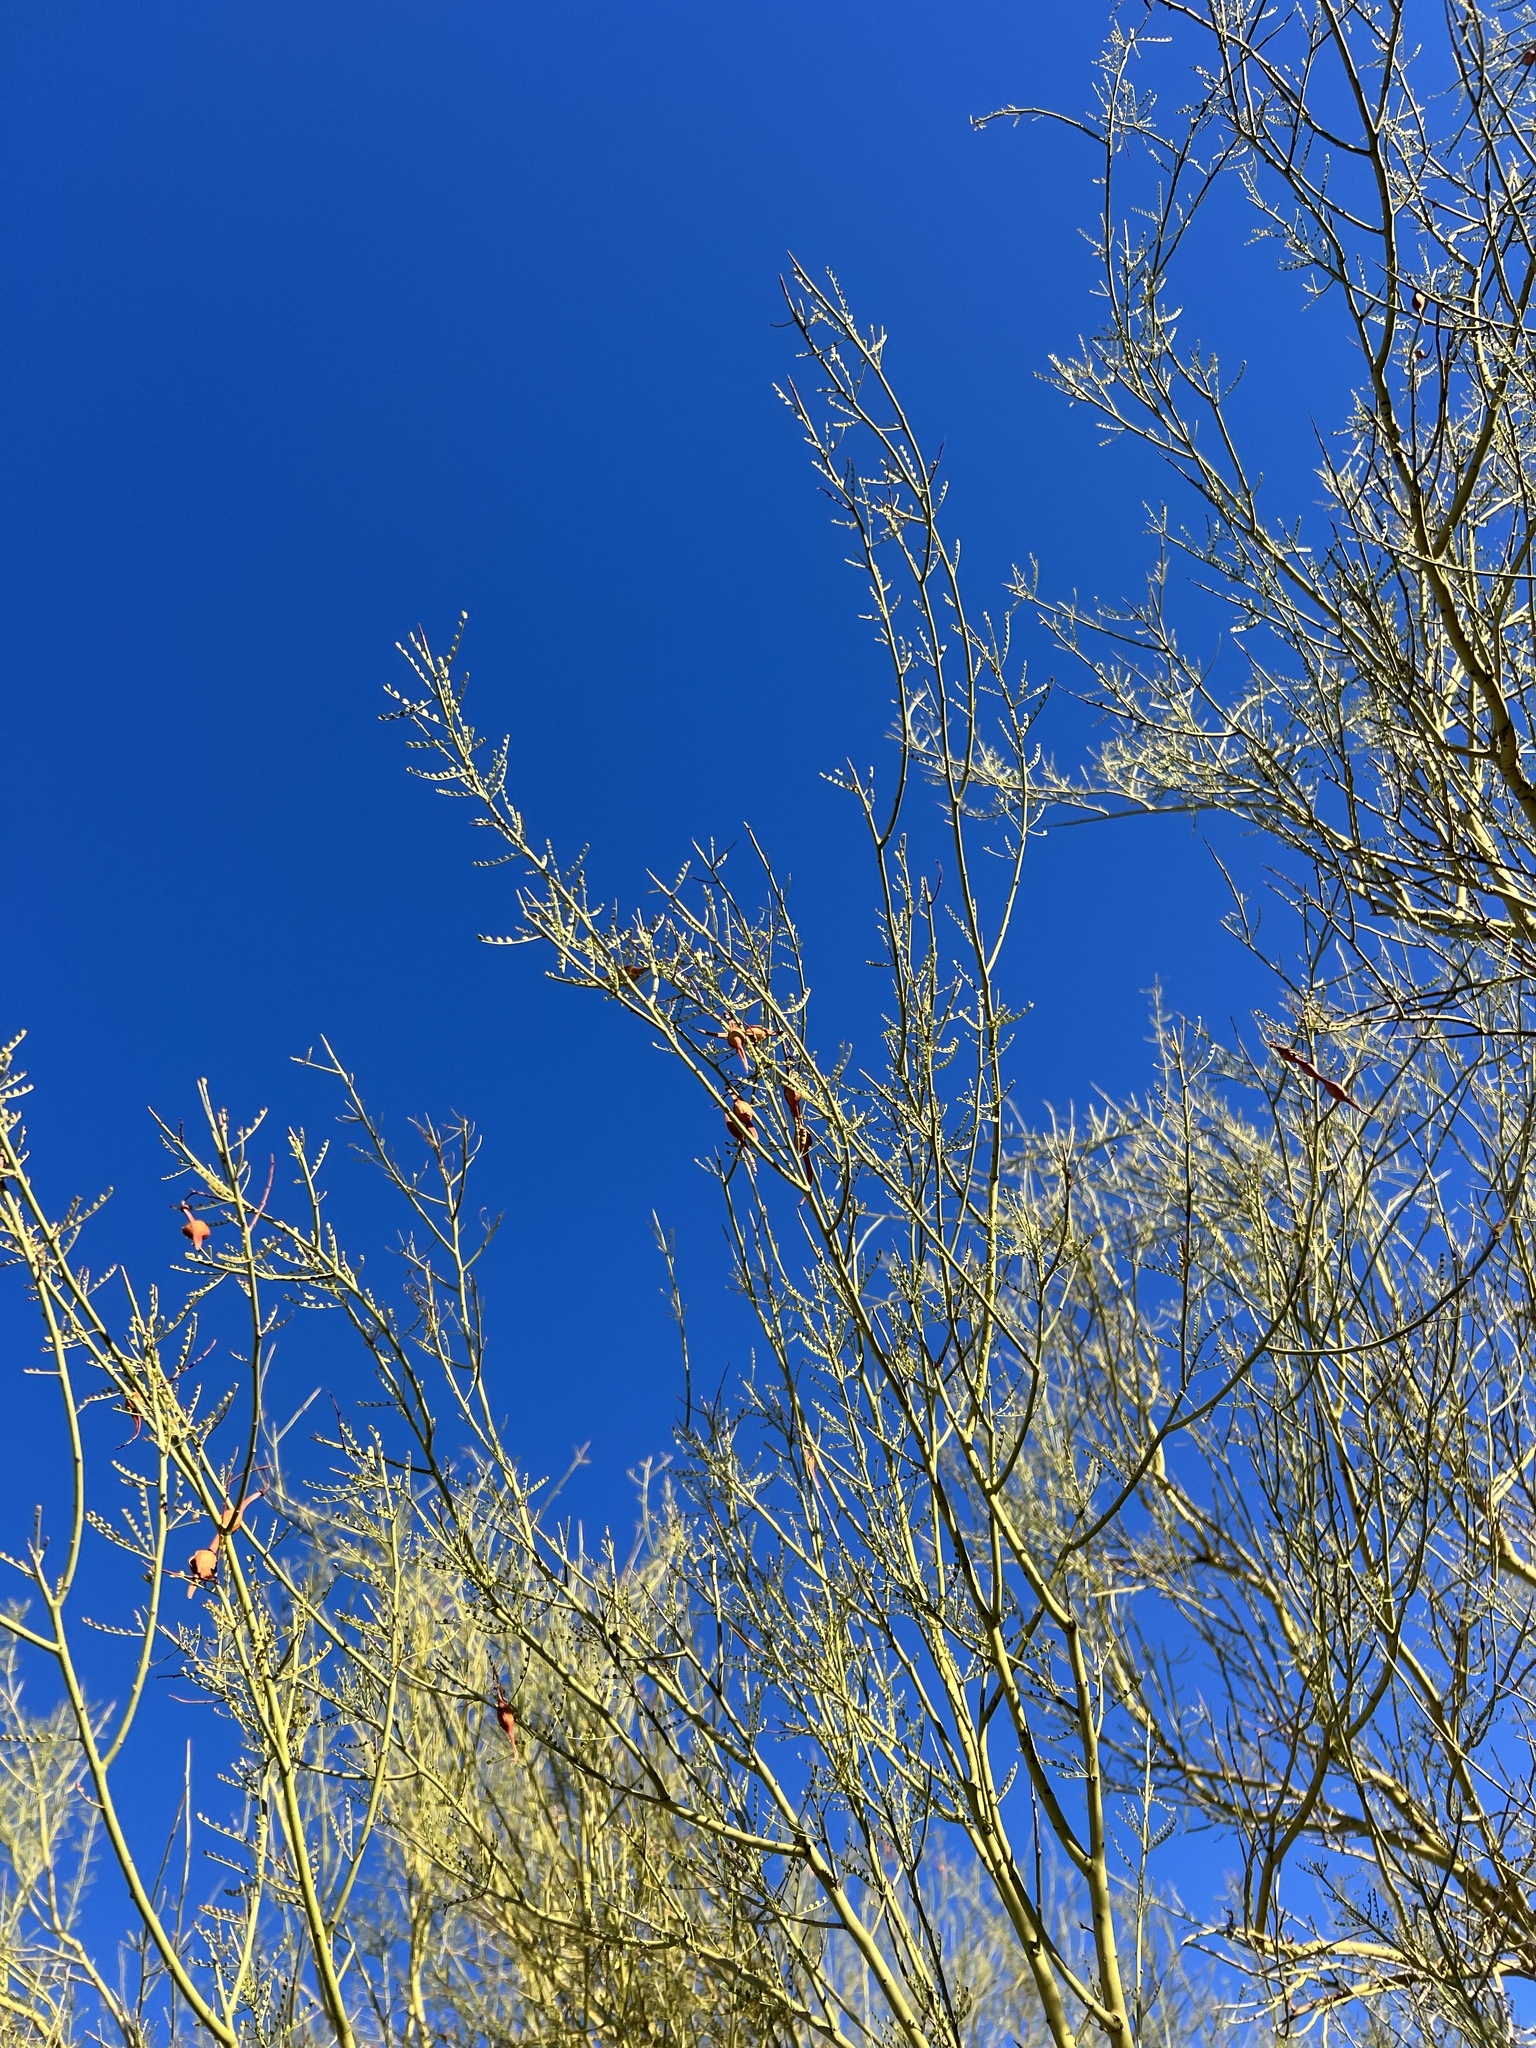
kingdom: Plantae
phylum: Tracheophyta
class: Magnoliopsida
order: Fabales
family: Fabaceae
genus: Parkinsonia
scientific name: Parkinsonia microphylla
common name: Yellow paloverde
